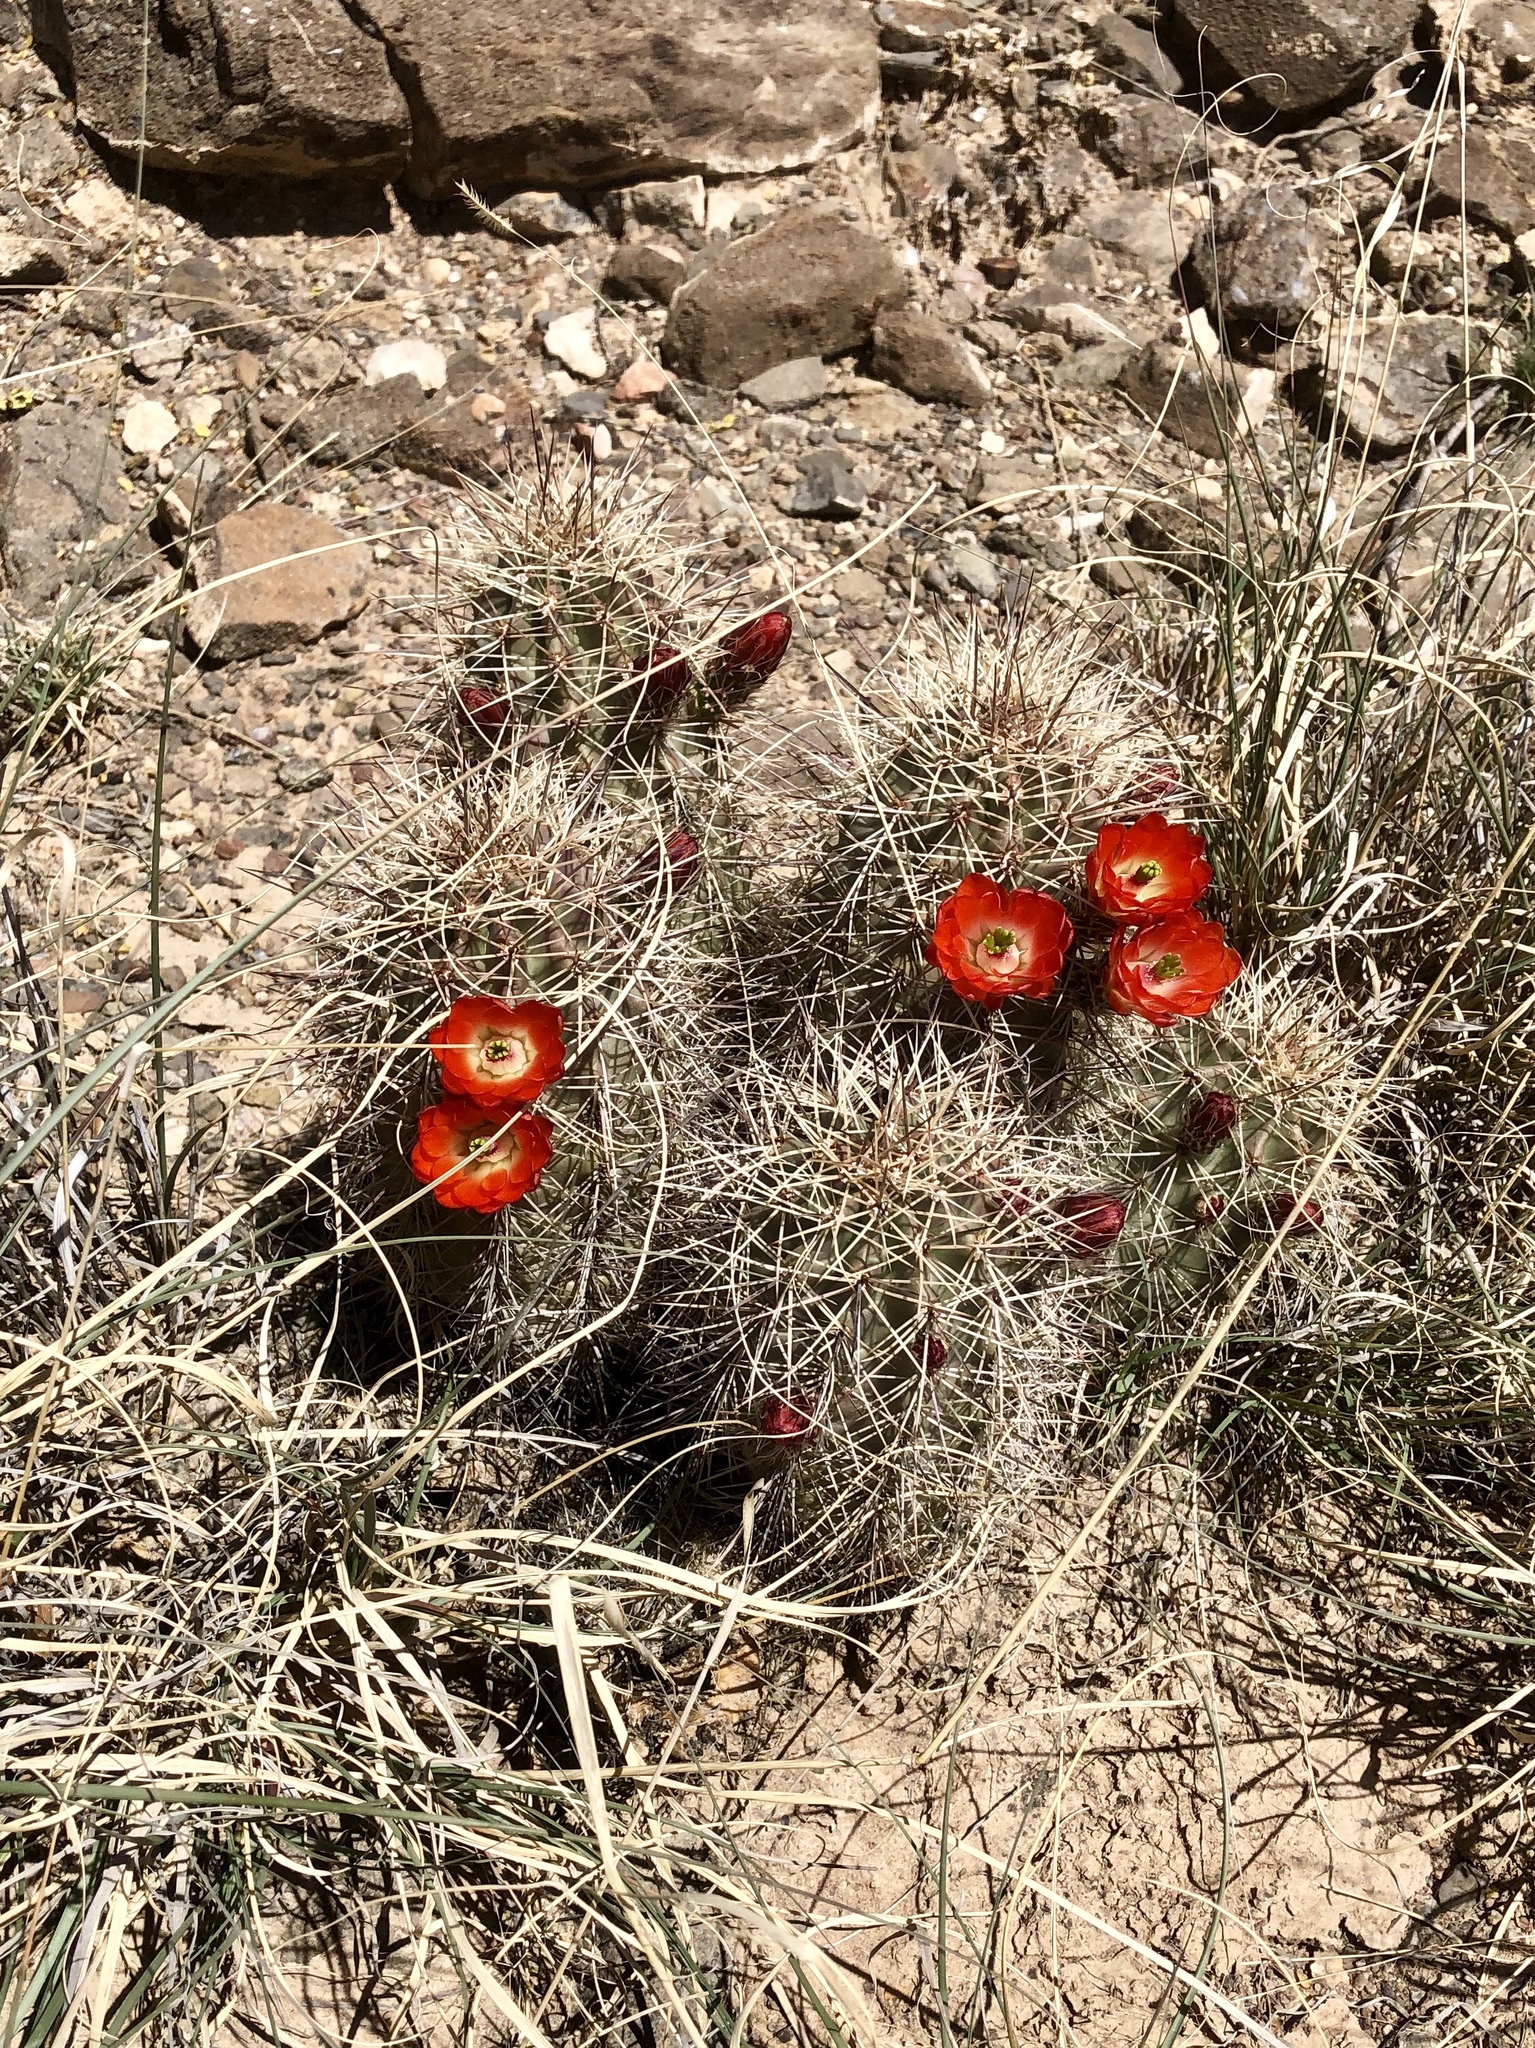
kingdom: Plantae
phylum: Tracheophyta
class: Magnoliopsida
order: Caryophyllales
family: Cactaceae
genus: Echinocereus
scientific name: Echinocereus coccineus
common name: Scarlet hedgehog cactus
